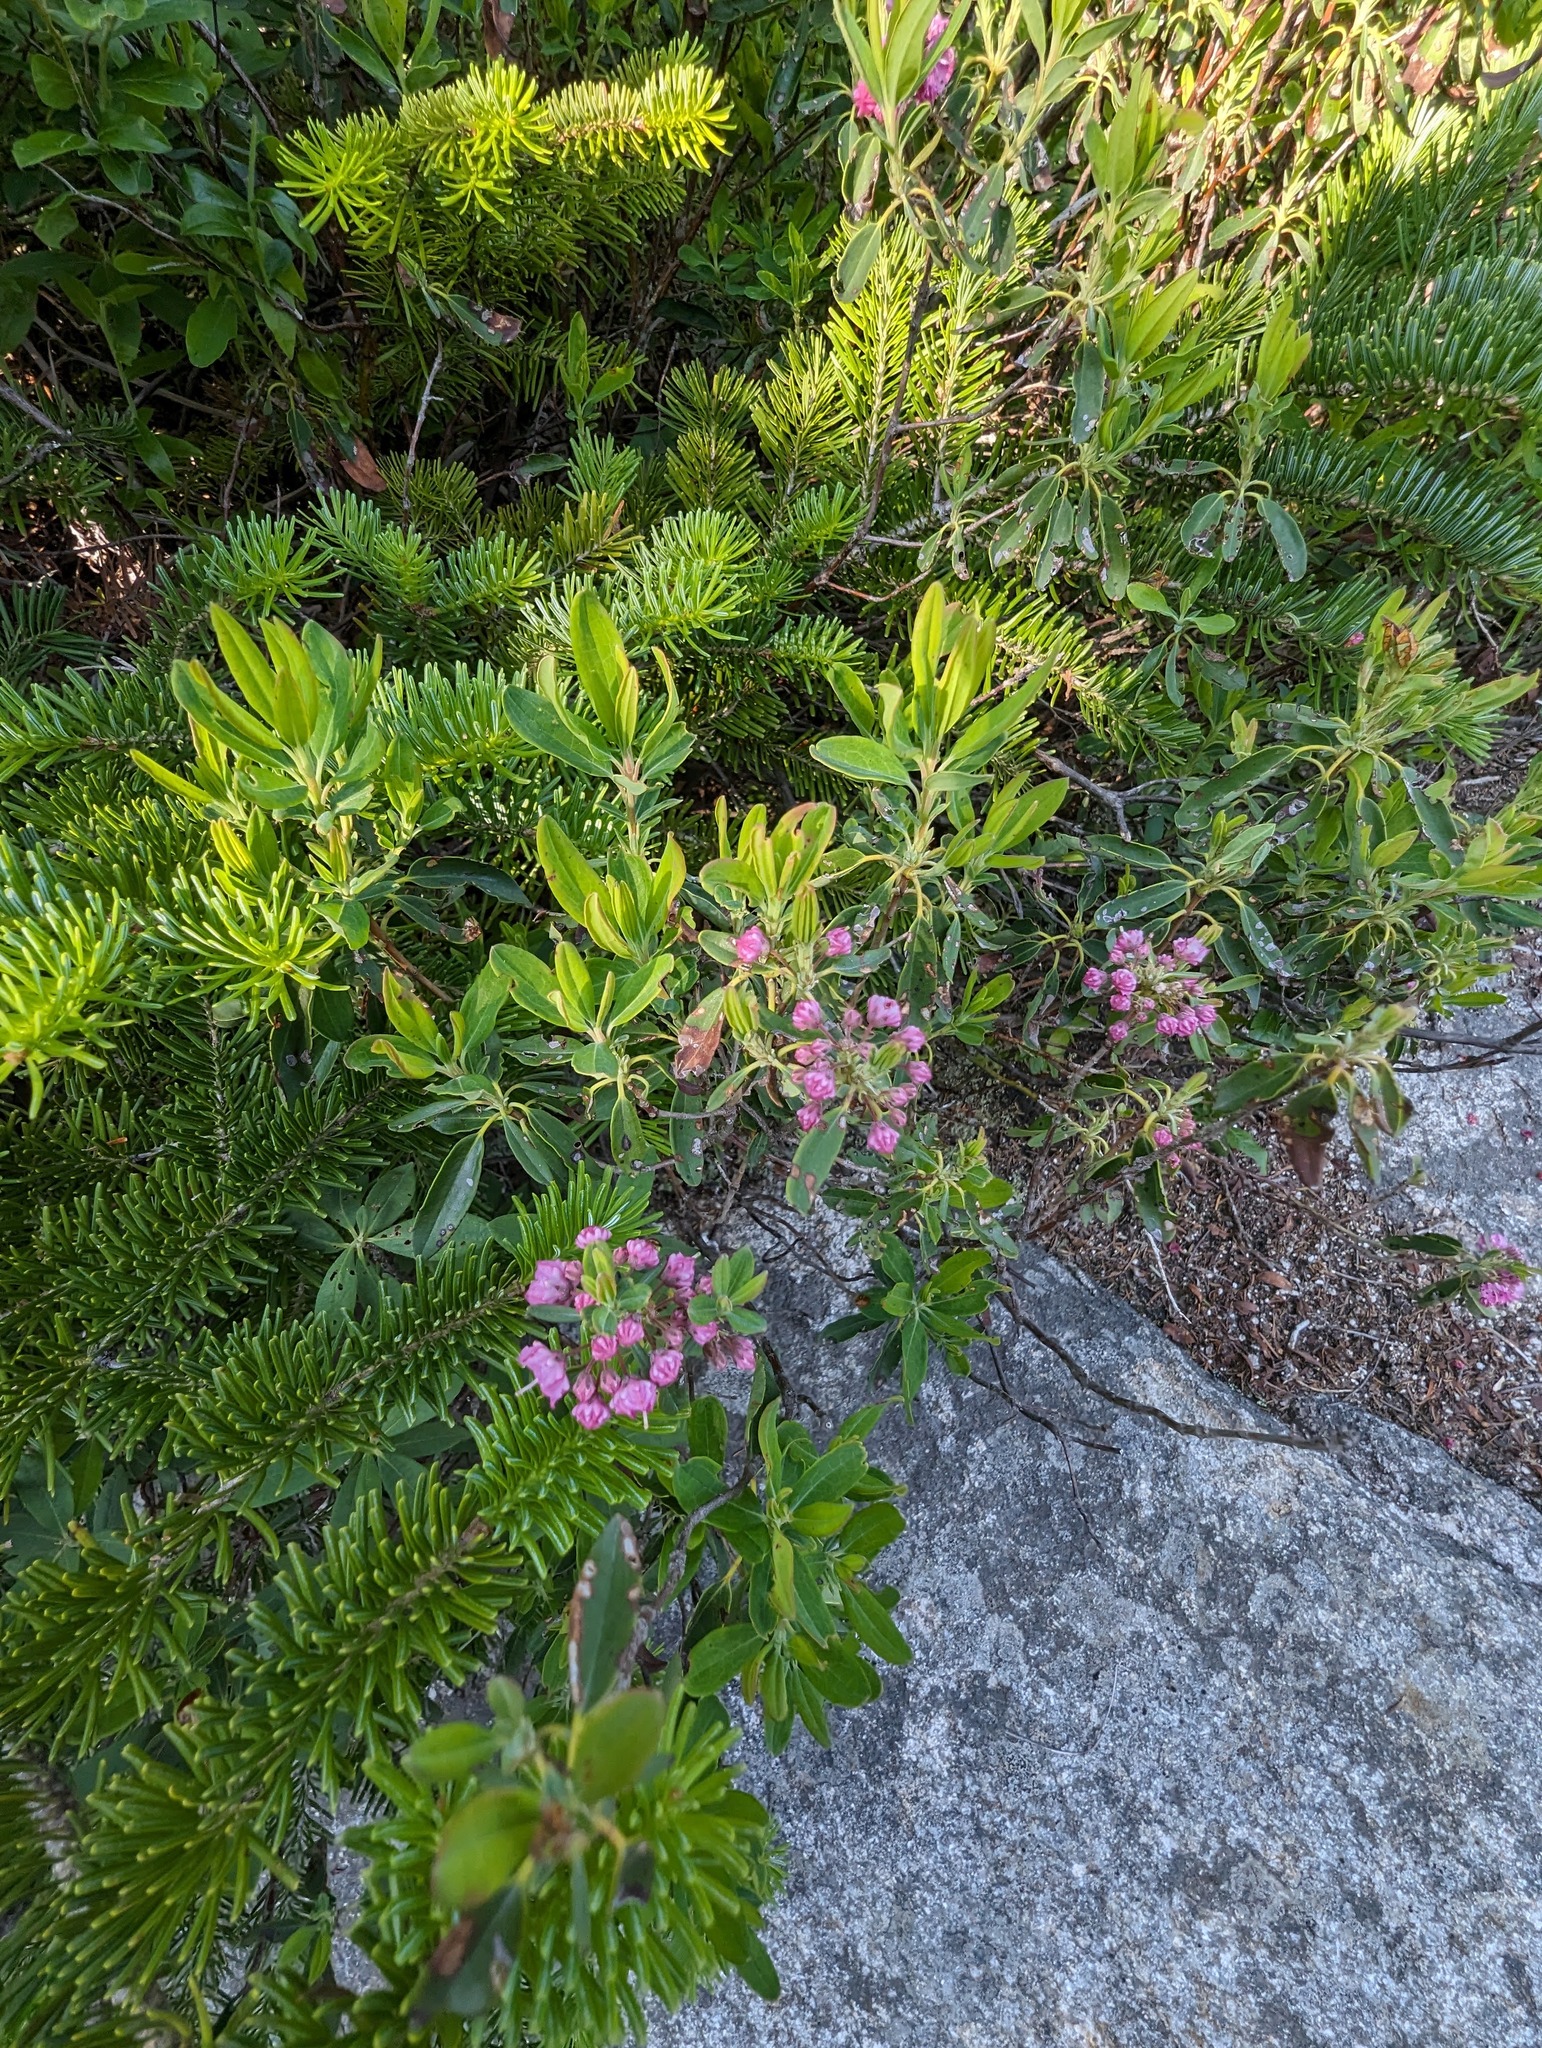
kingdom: Plantae
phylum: Tracheophyta
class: Magnoliopsida
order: Ericales
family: Ericaceae
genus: Kalmia
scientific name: Kalmia angustifolia
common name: Sheep-laurel
